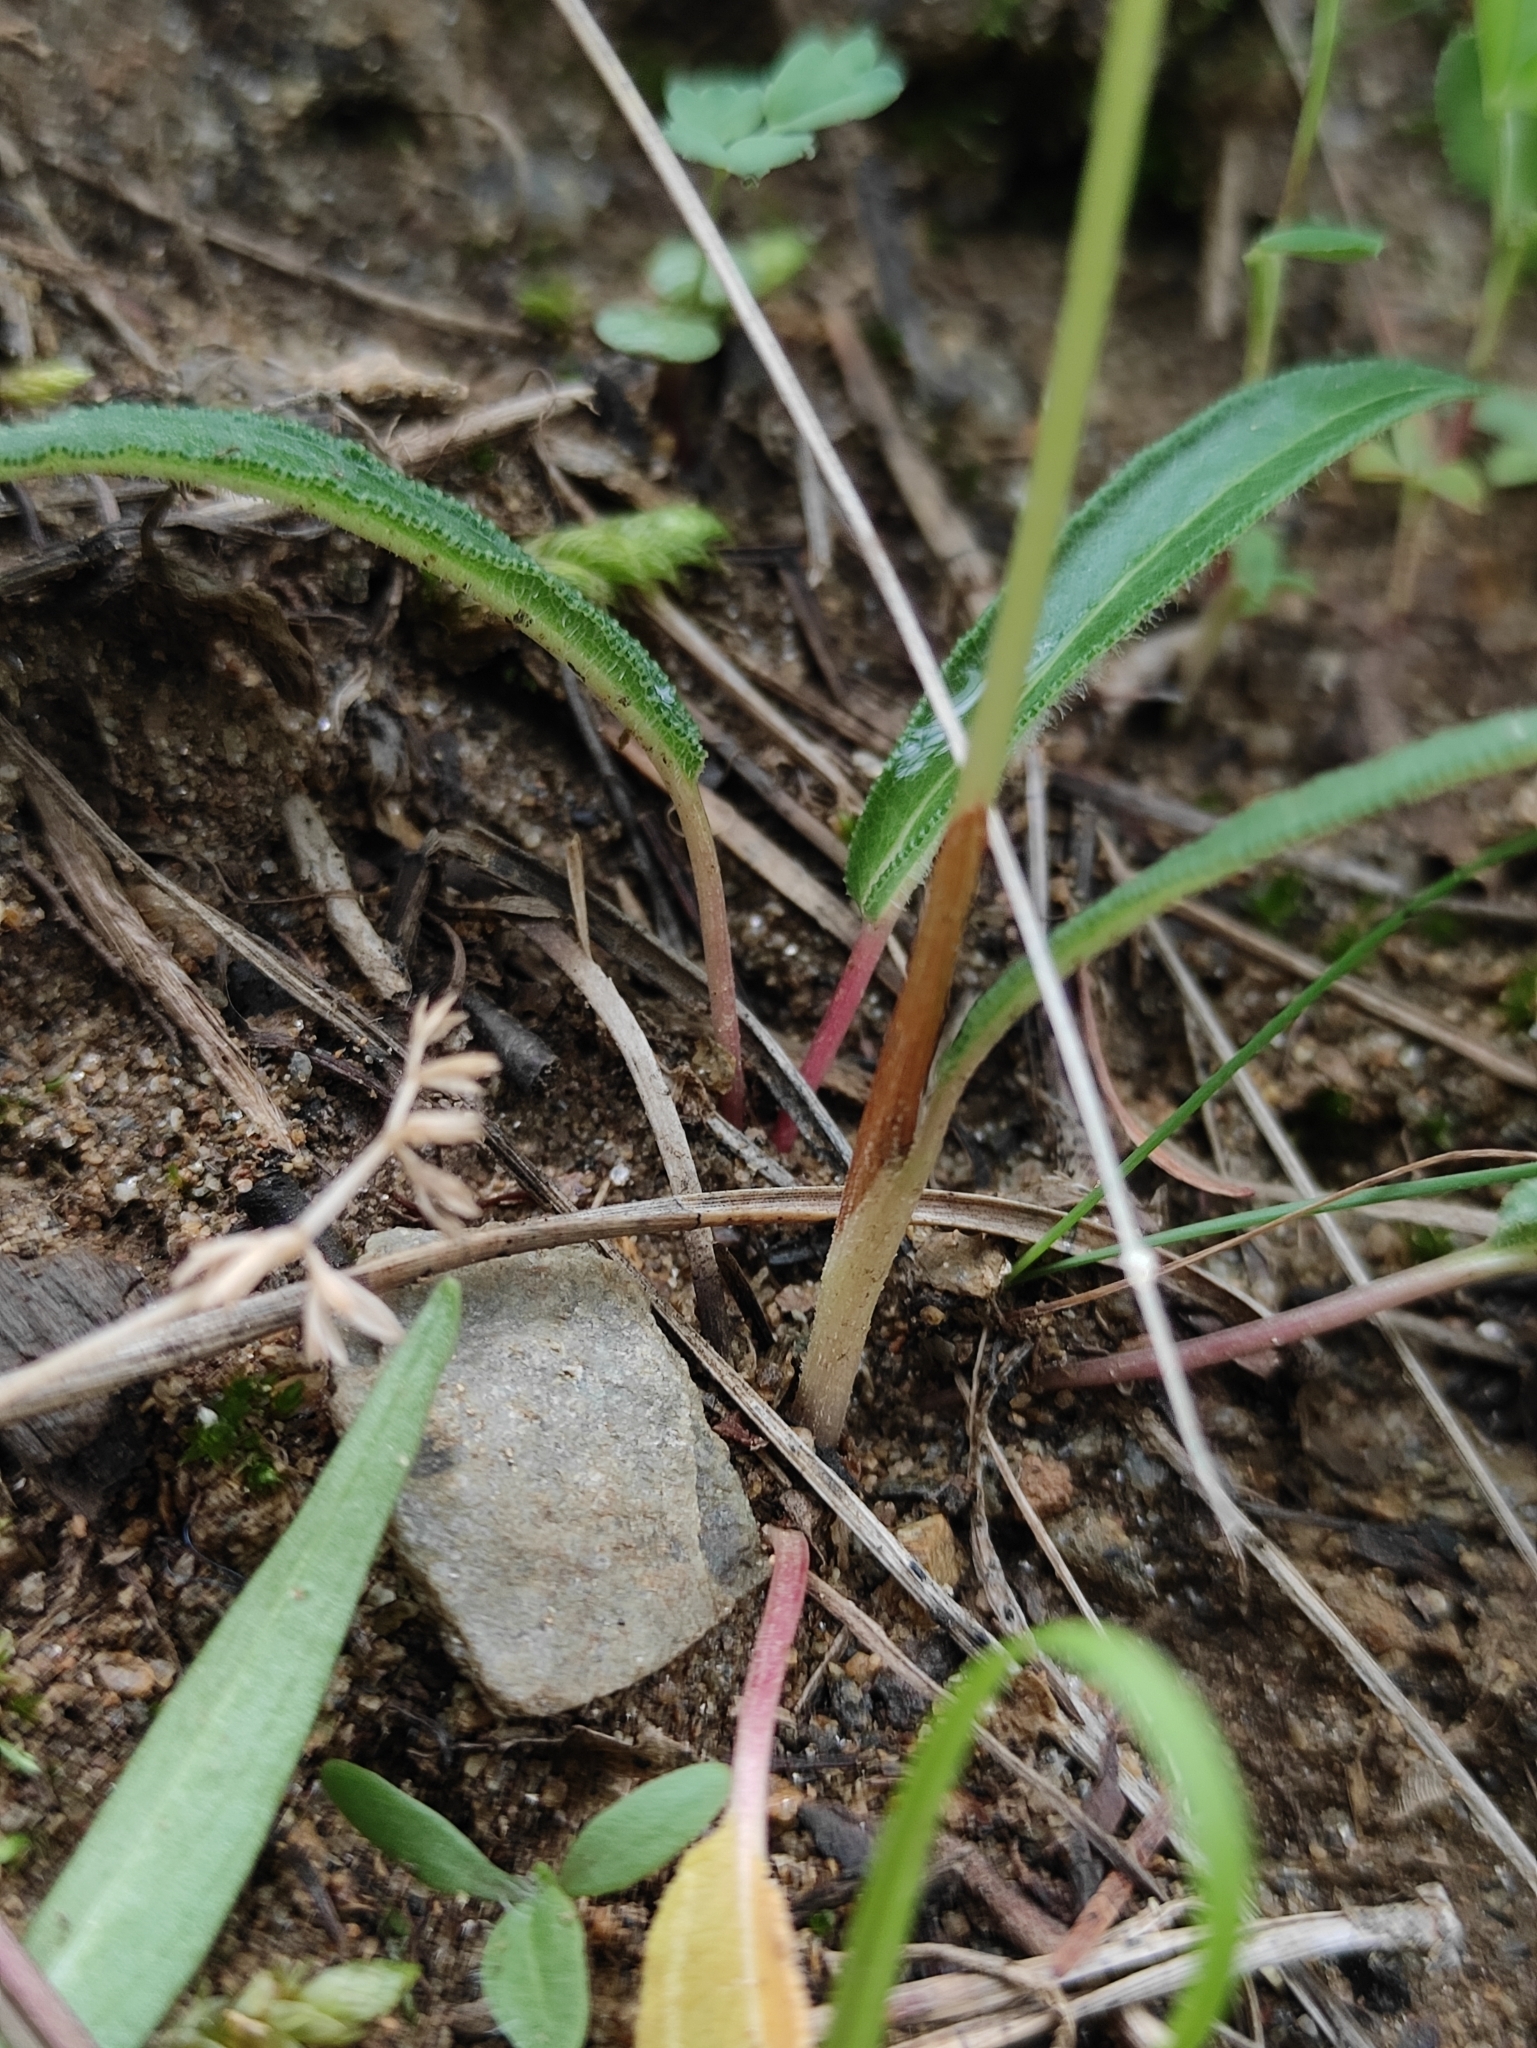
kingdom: Plantae
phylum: Tracheophyta
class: Magnoliopsida
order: Caryophyllales
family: Polygonaceae
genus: Bistorta
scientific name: Bistorta vivipara
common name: Alpine bistort
